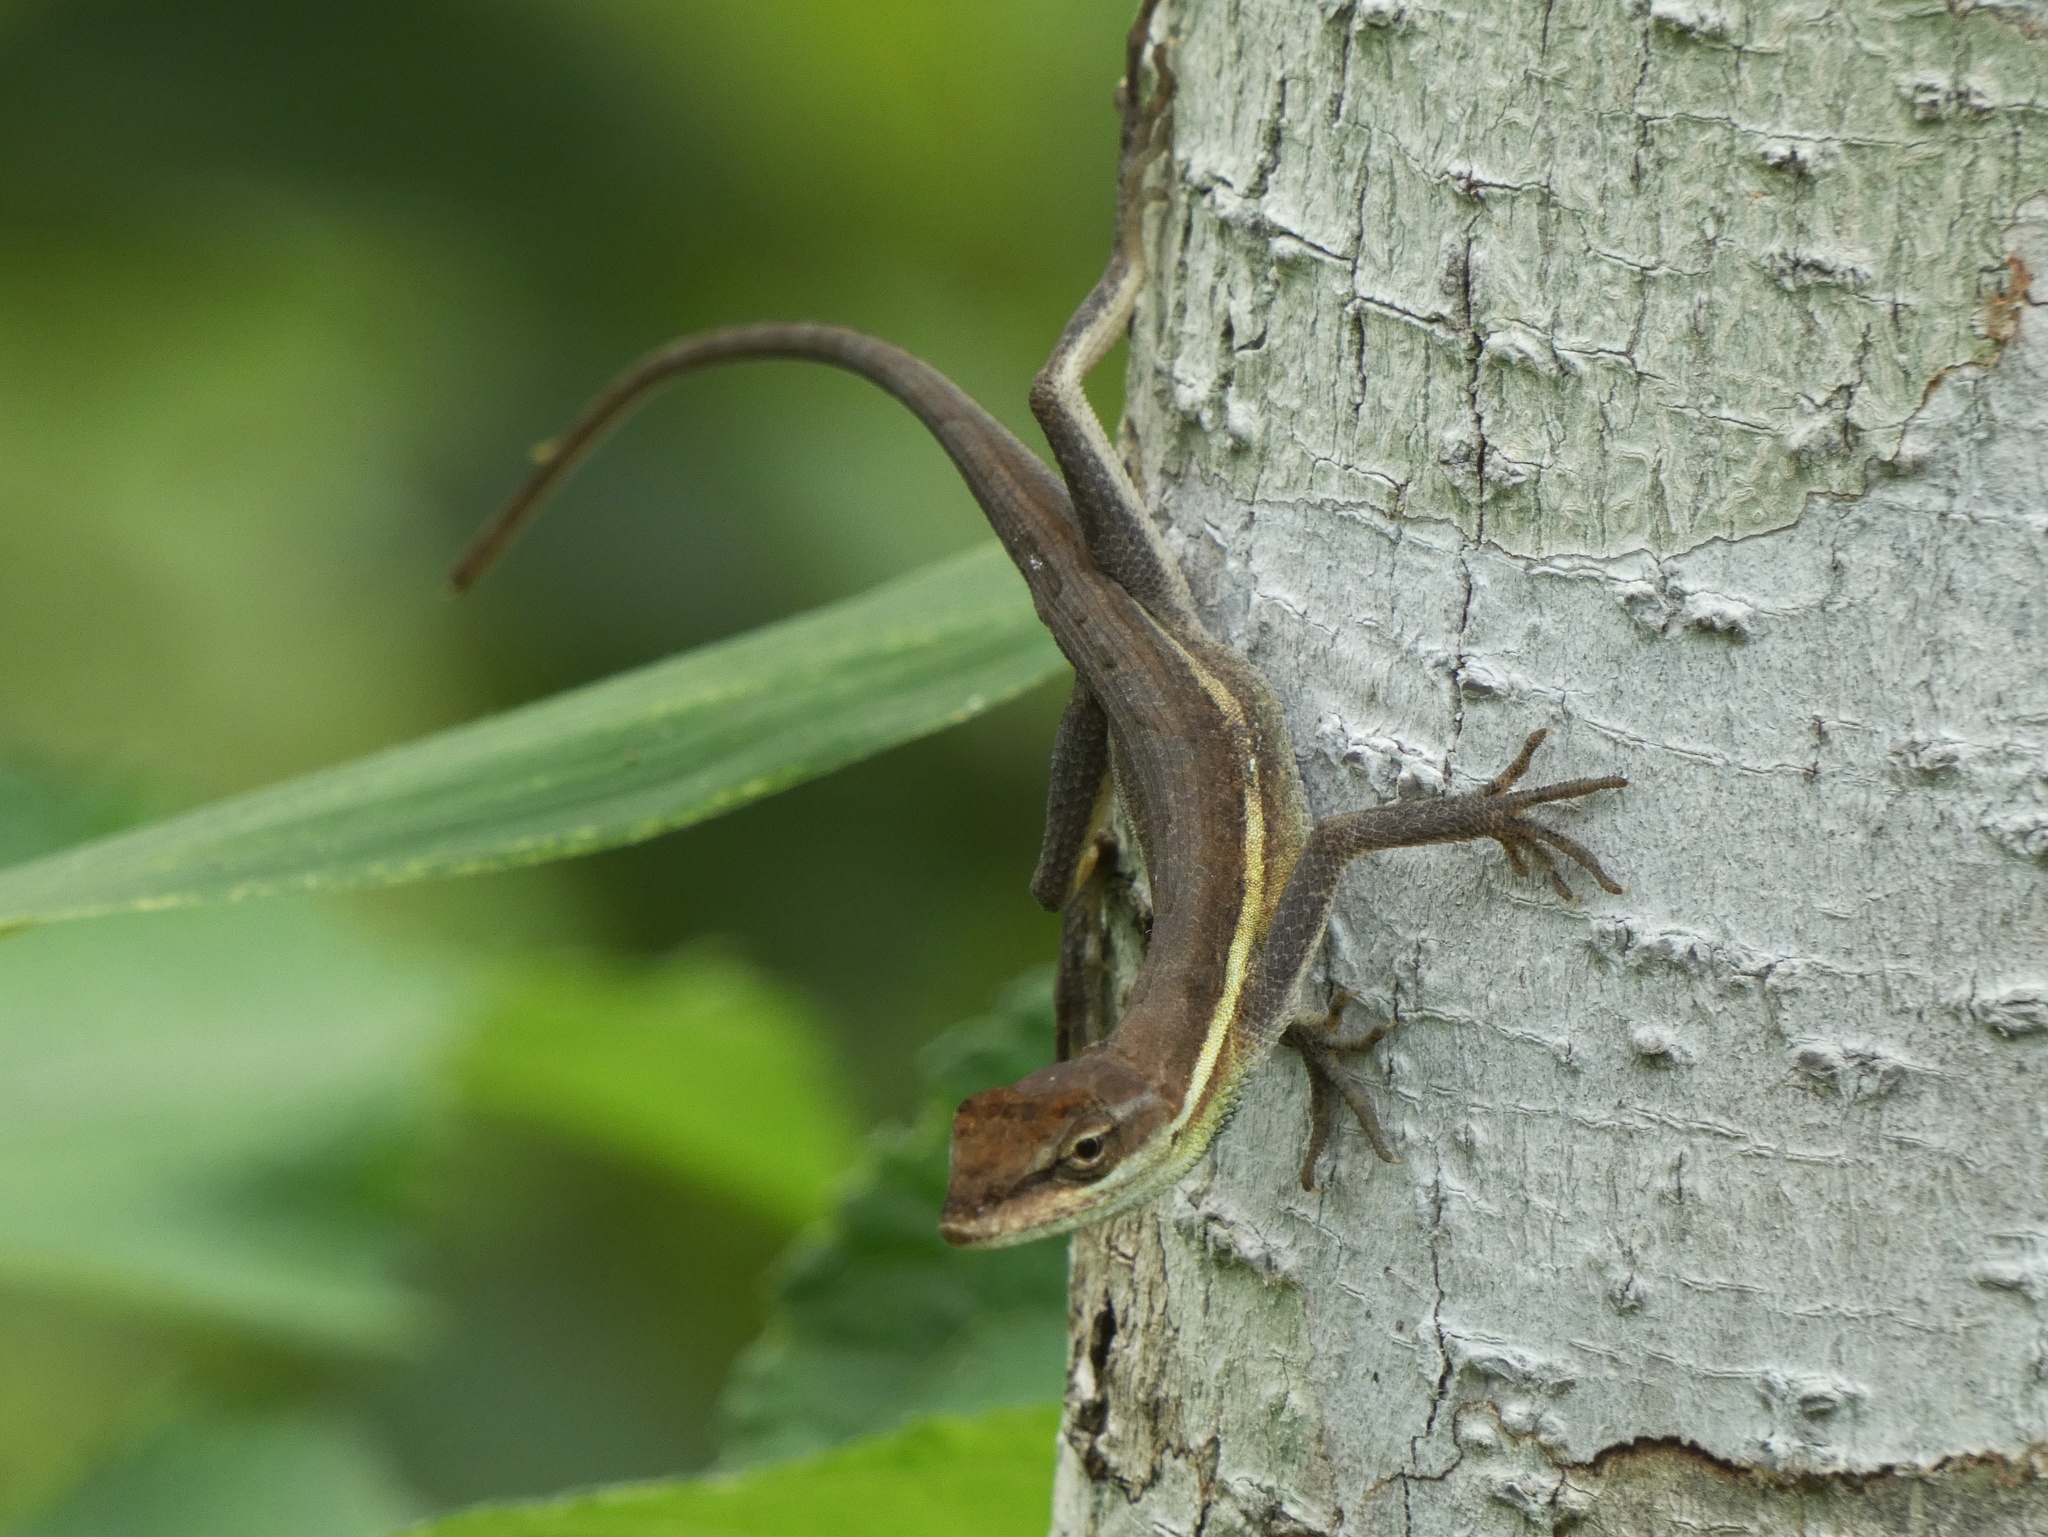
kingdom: Animalia
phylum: Chordata
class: Squamata
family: Dactyloidae
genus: Anolis
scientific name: Anolis auratus
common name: Grass anole
